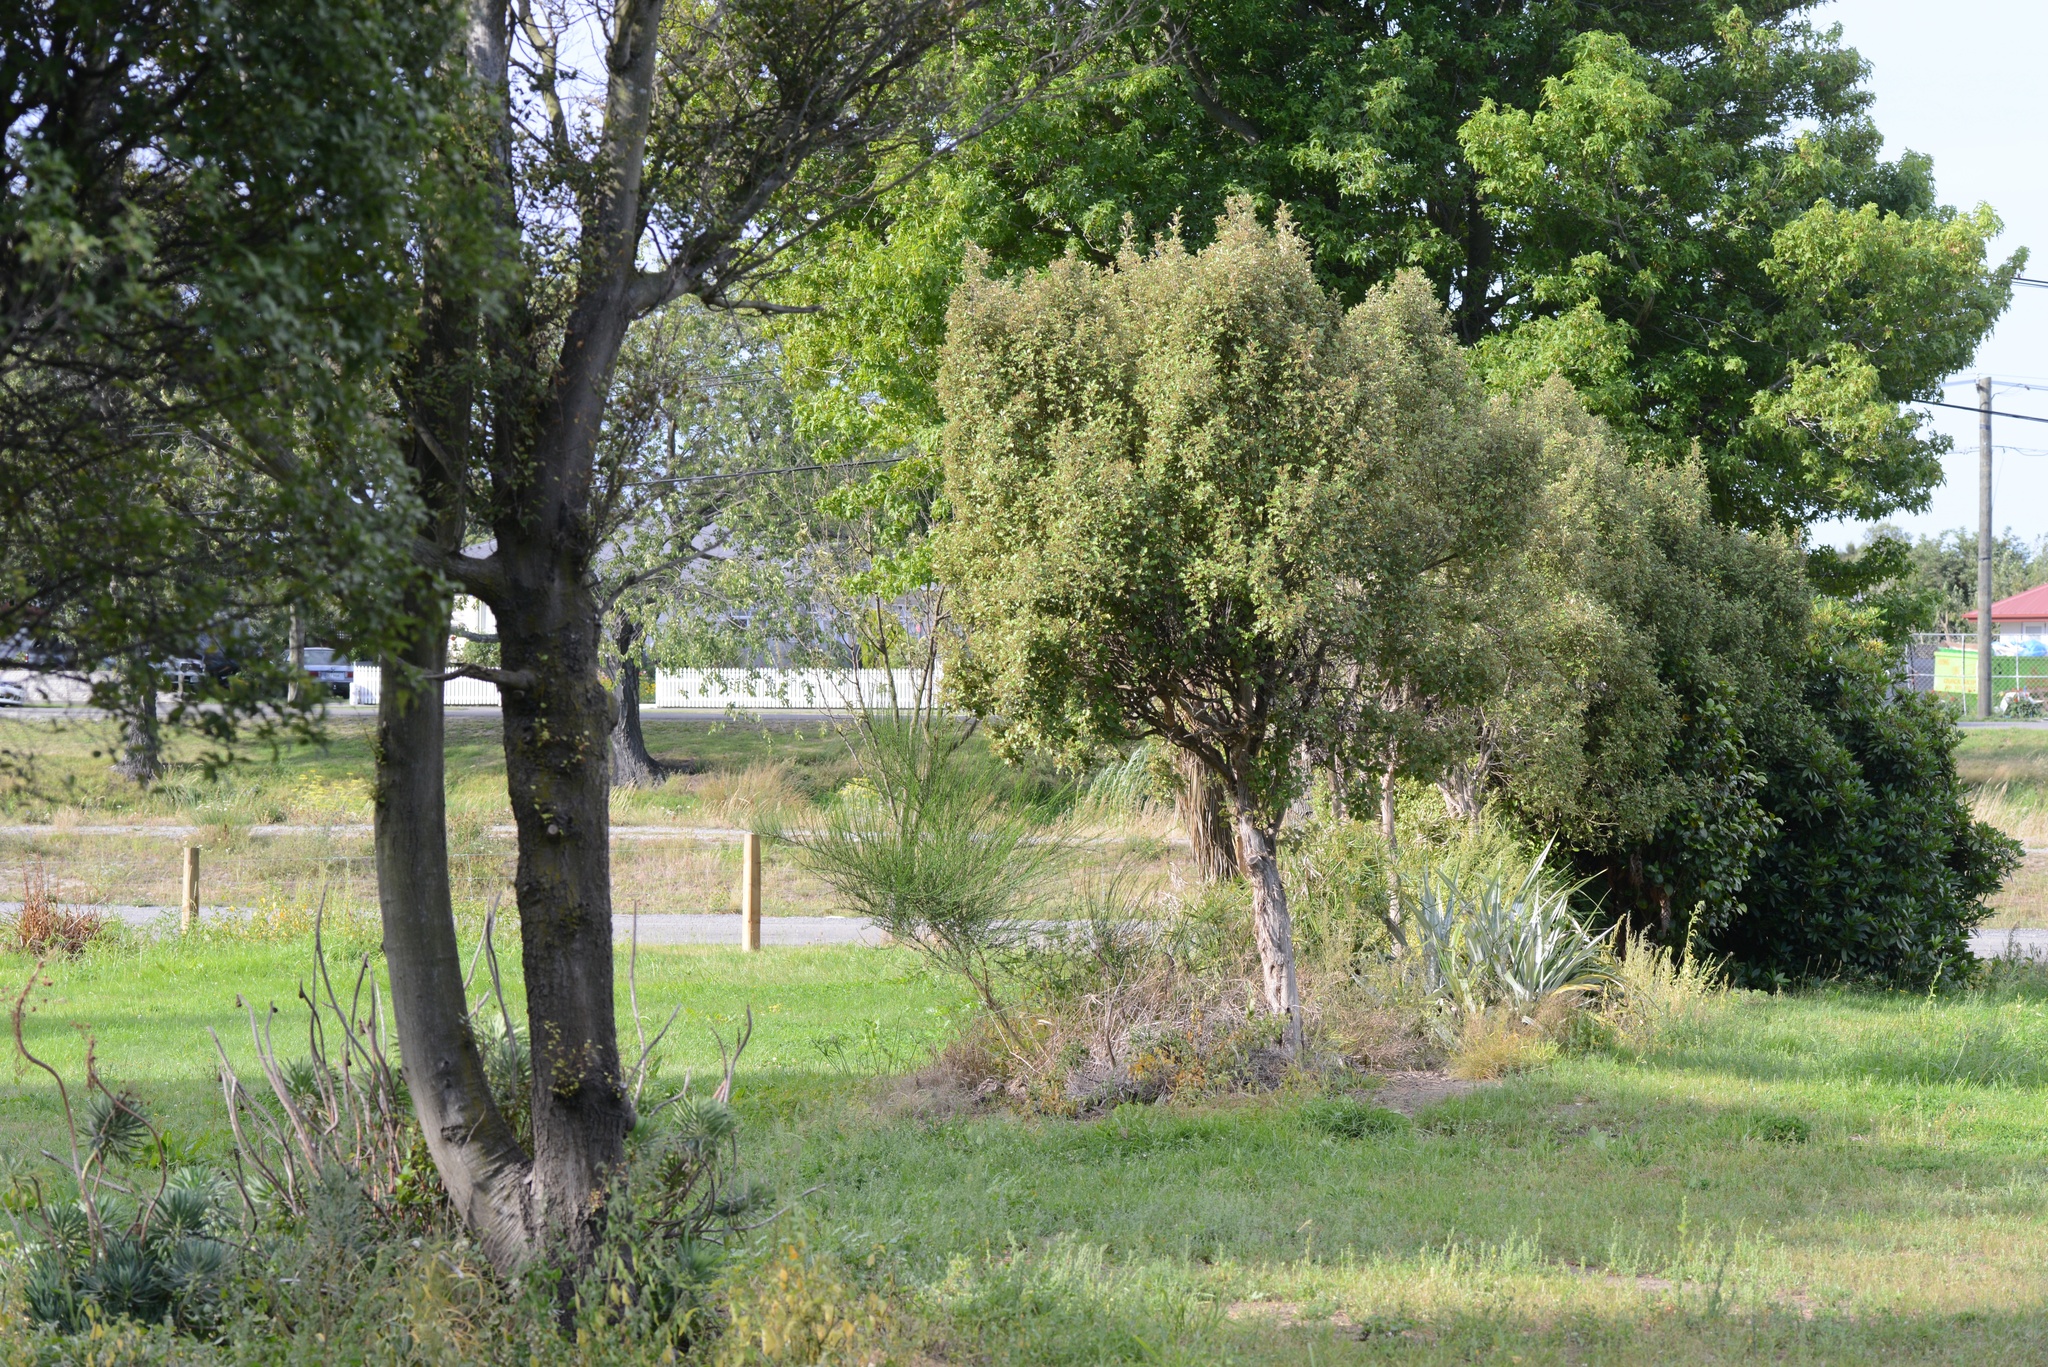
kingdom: Plantae
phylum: Tracheophyta
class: Magnoliopsida
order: Fabales
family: Fabaceae
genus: Cytisus
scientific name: Cytisus scoparius
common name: Scotch broom
